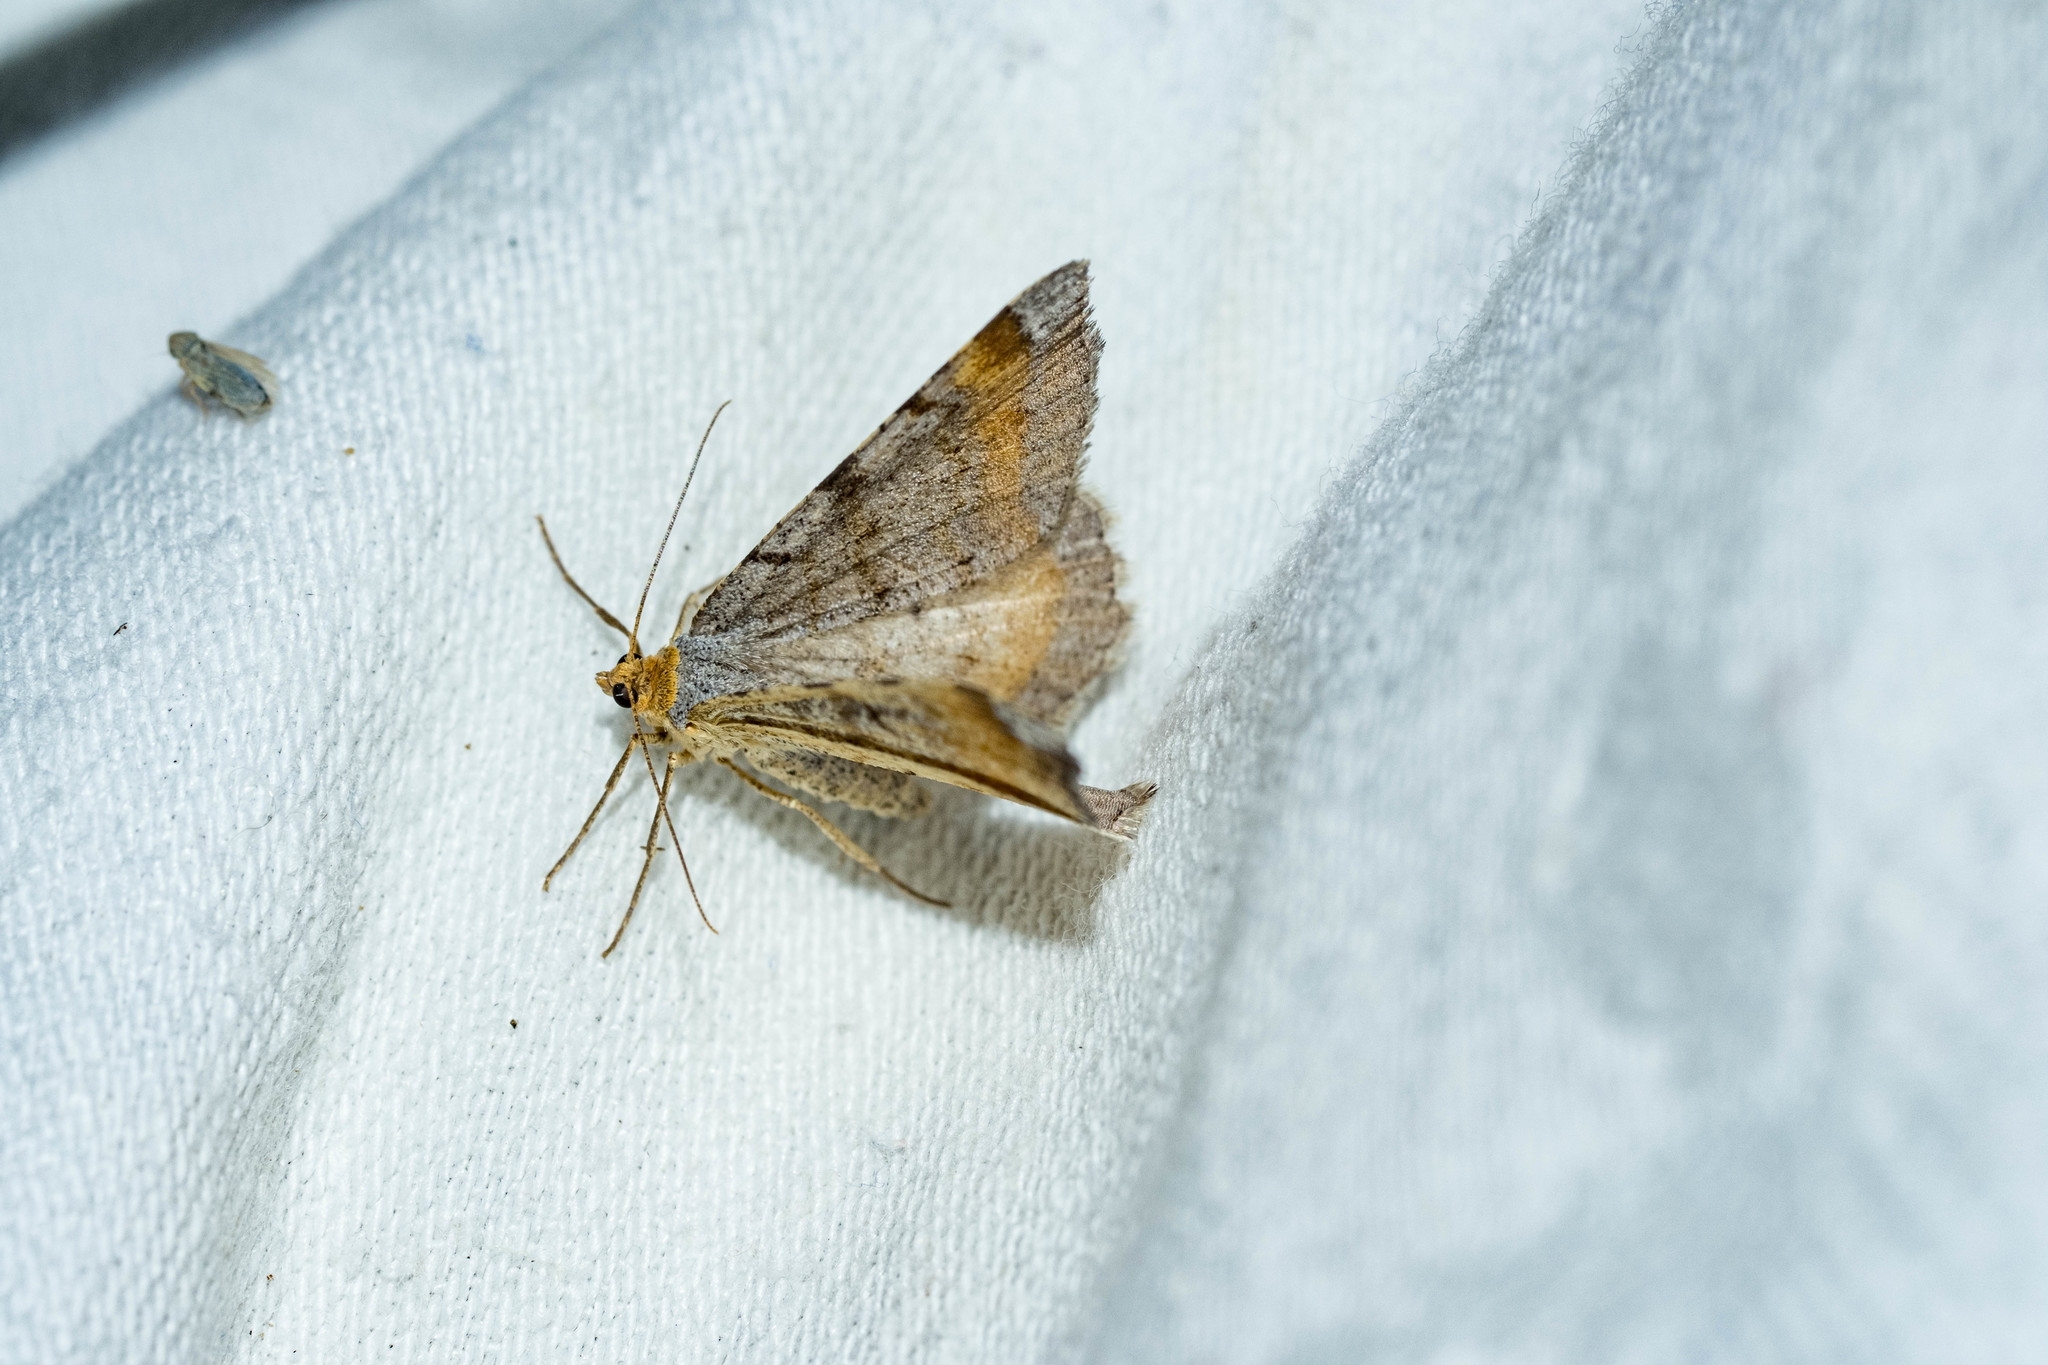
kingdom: Animalia
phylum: Arthropoda
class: Insecta
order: Lepidoptera
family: Geometridae
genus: Macaria
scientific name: Macaria liturata
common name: Tawny-barred angle
